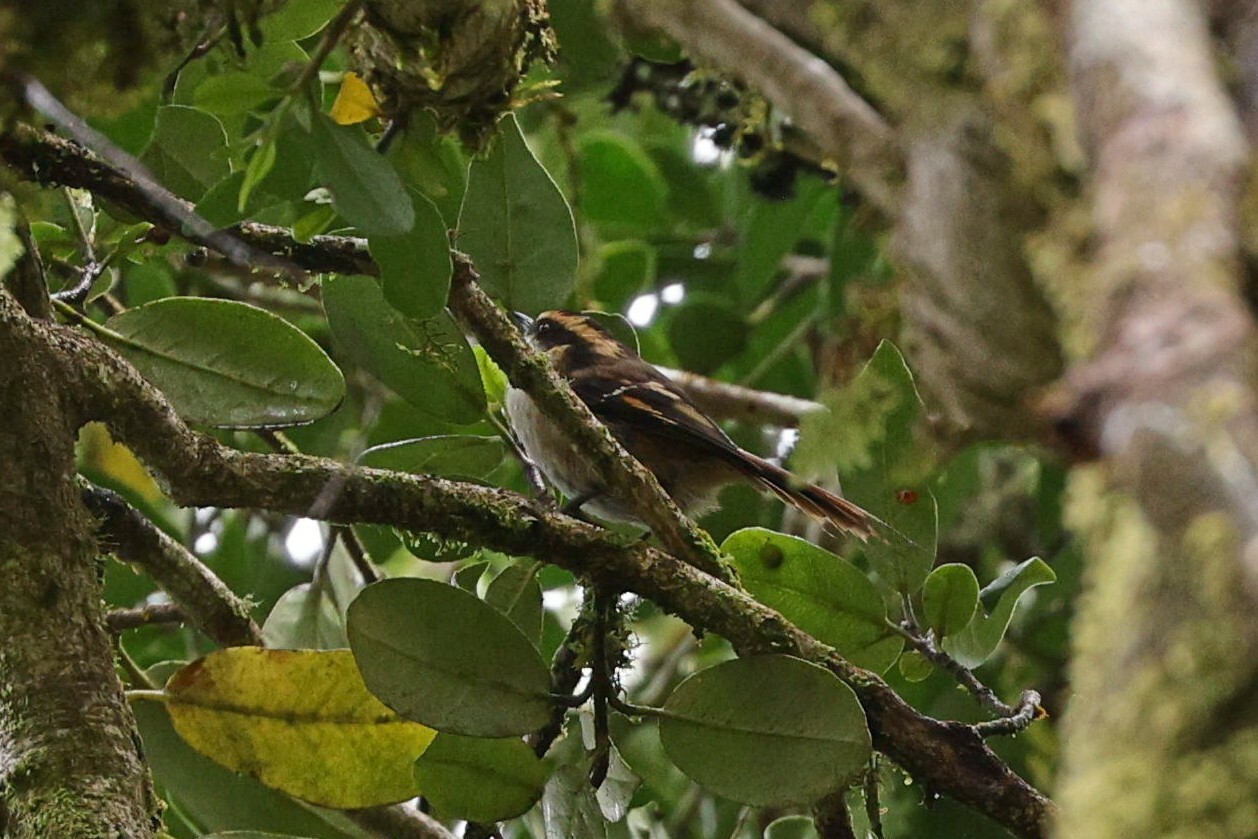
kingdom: Animalia
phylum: Chordata
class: Aves
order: Passeriformes
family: Furnariidae
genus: Aphrastura
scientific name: Aphrastura spinicauda
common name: Thorn-tailed rayadito
